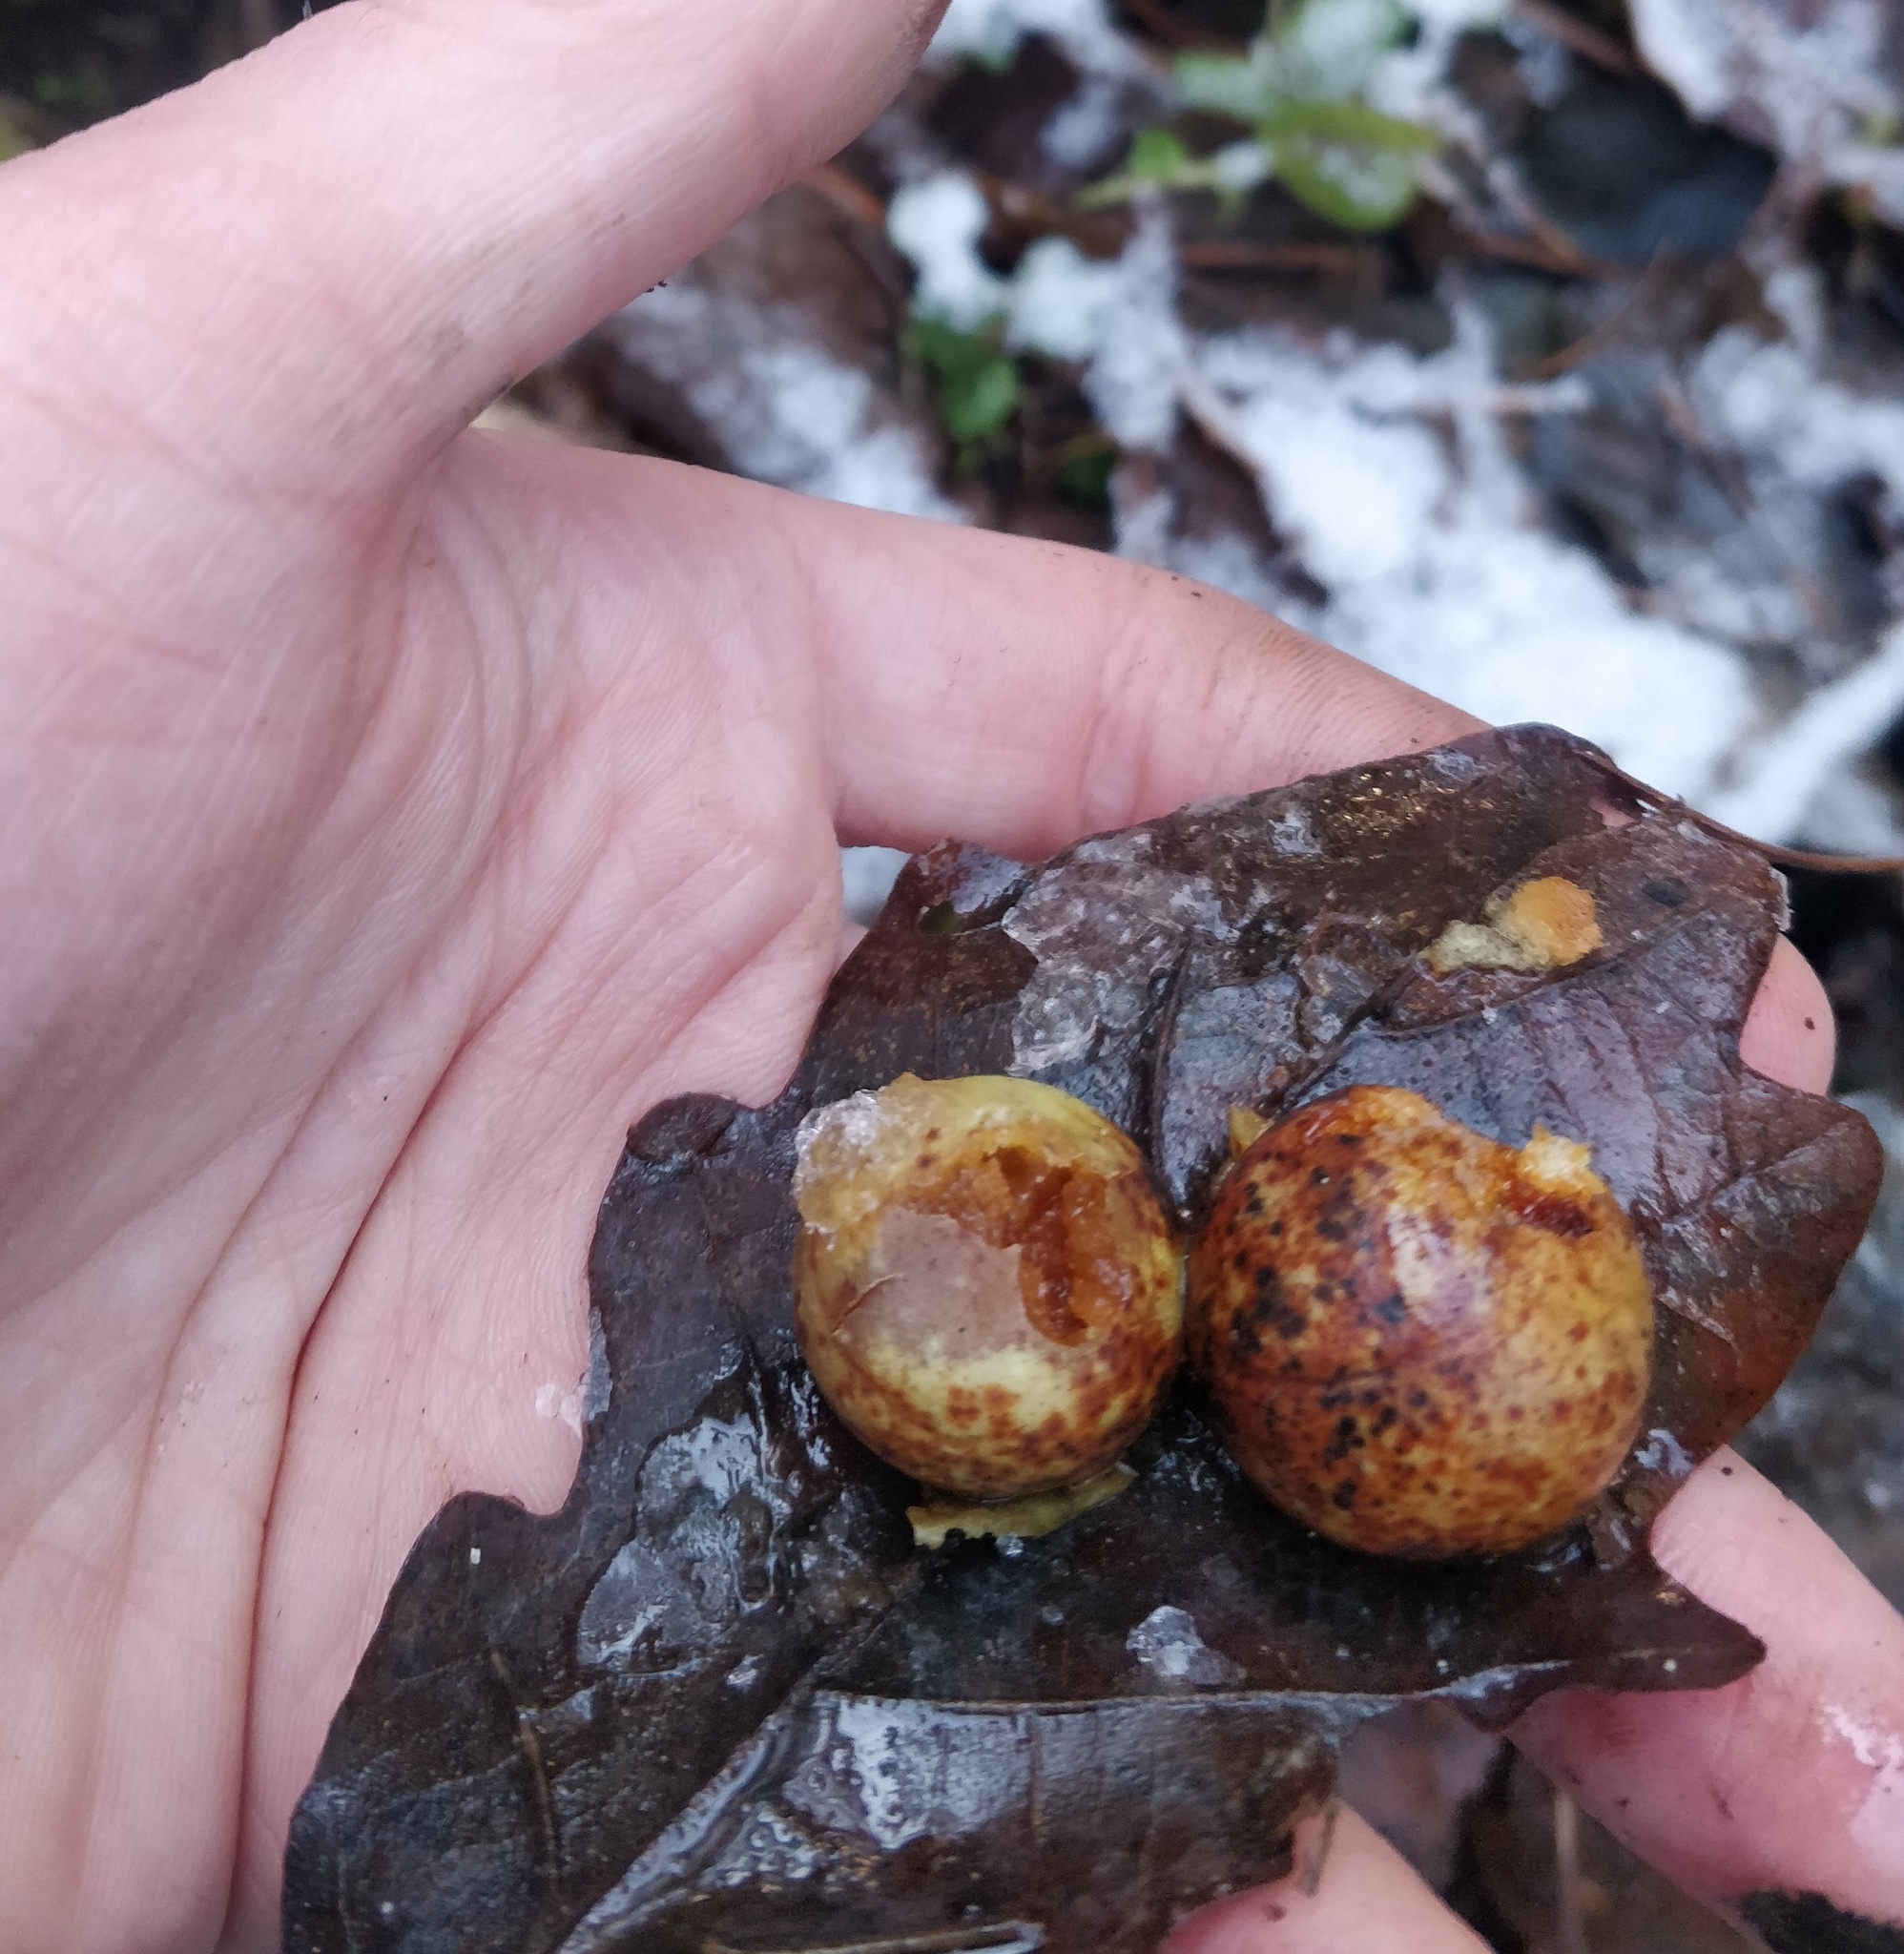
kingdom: Animalia
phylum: Arthropoda
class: Insecta
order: Hymenoptera
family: Cynipidae
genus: Cynips
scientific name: Cynips quercusfolii
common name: Cherry gall
